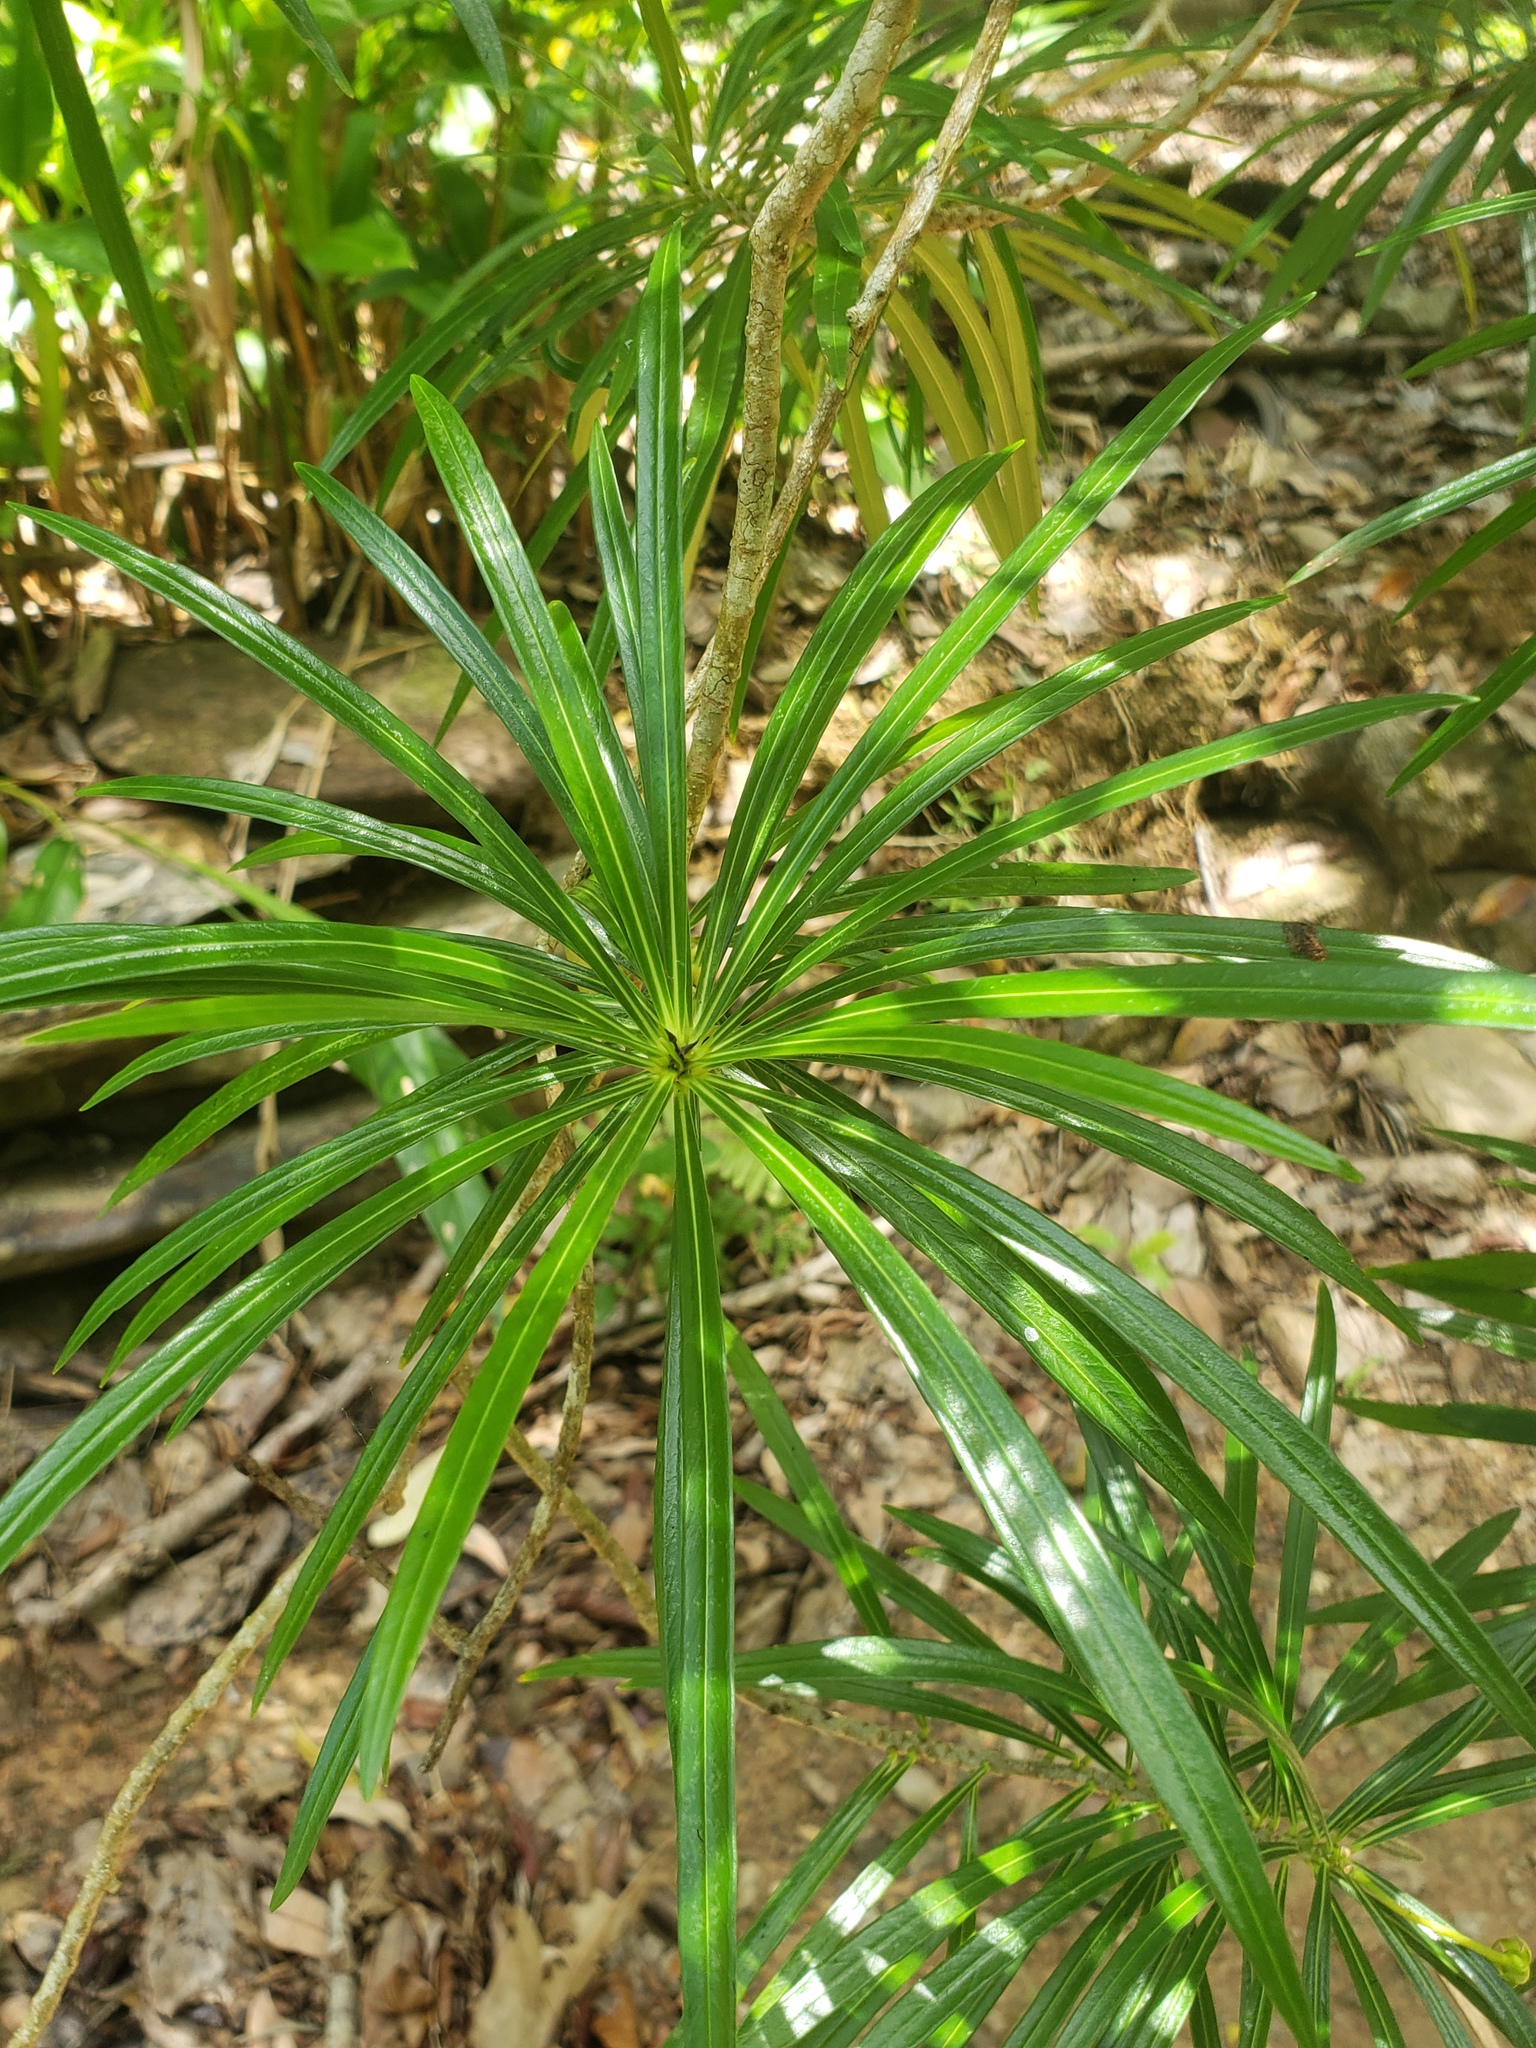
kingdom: Plantae
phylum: Tracheophyta
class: Magnoliopsida
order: Gentianales
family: Apocynaceae
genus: Cascabela
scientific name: Cascabela thevetia
